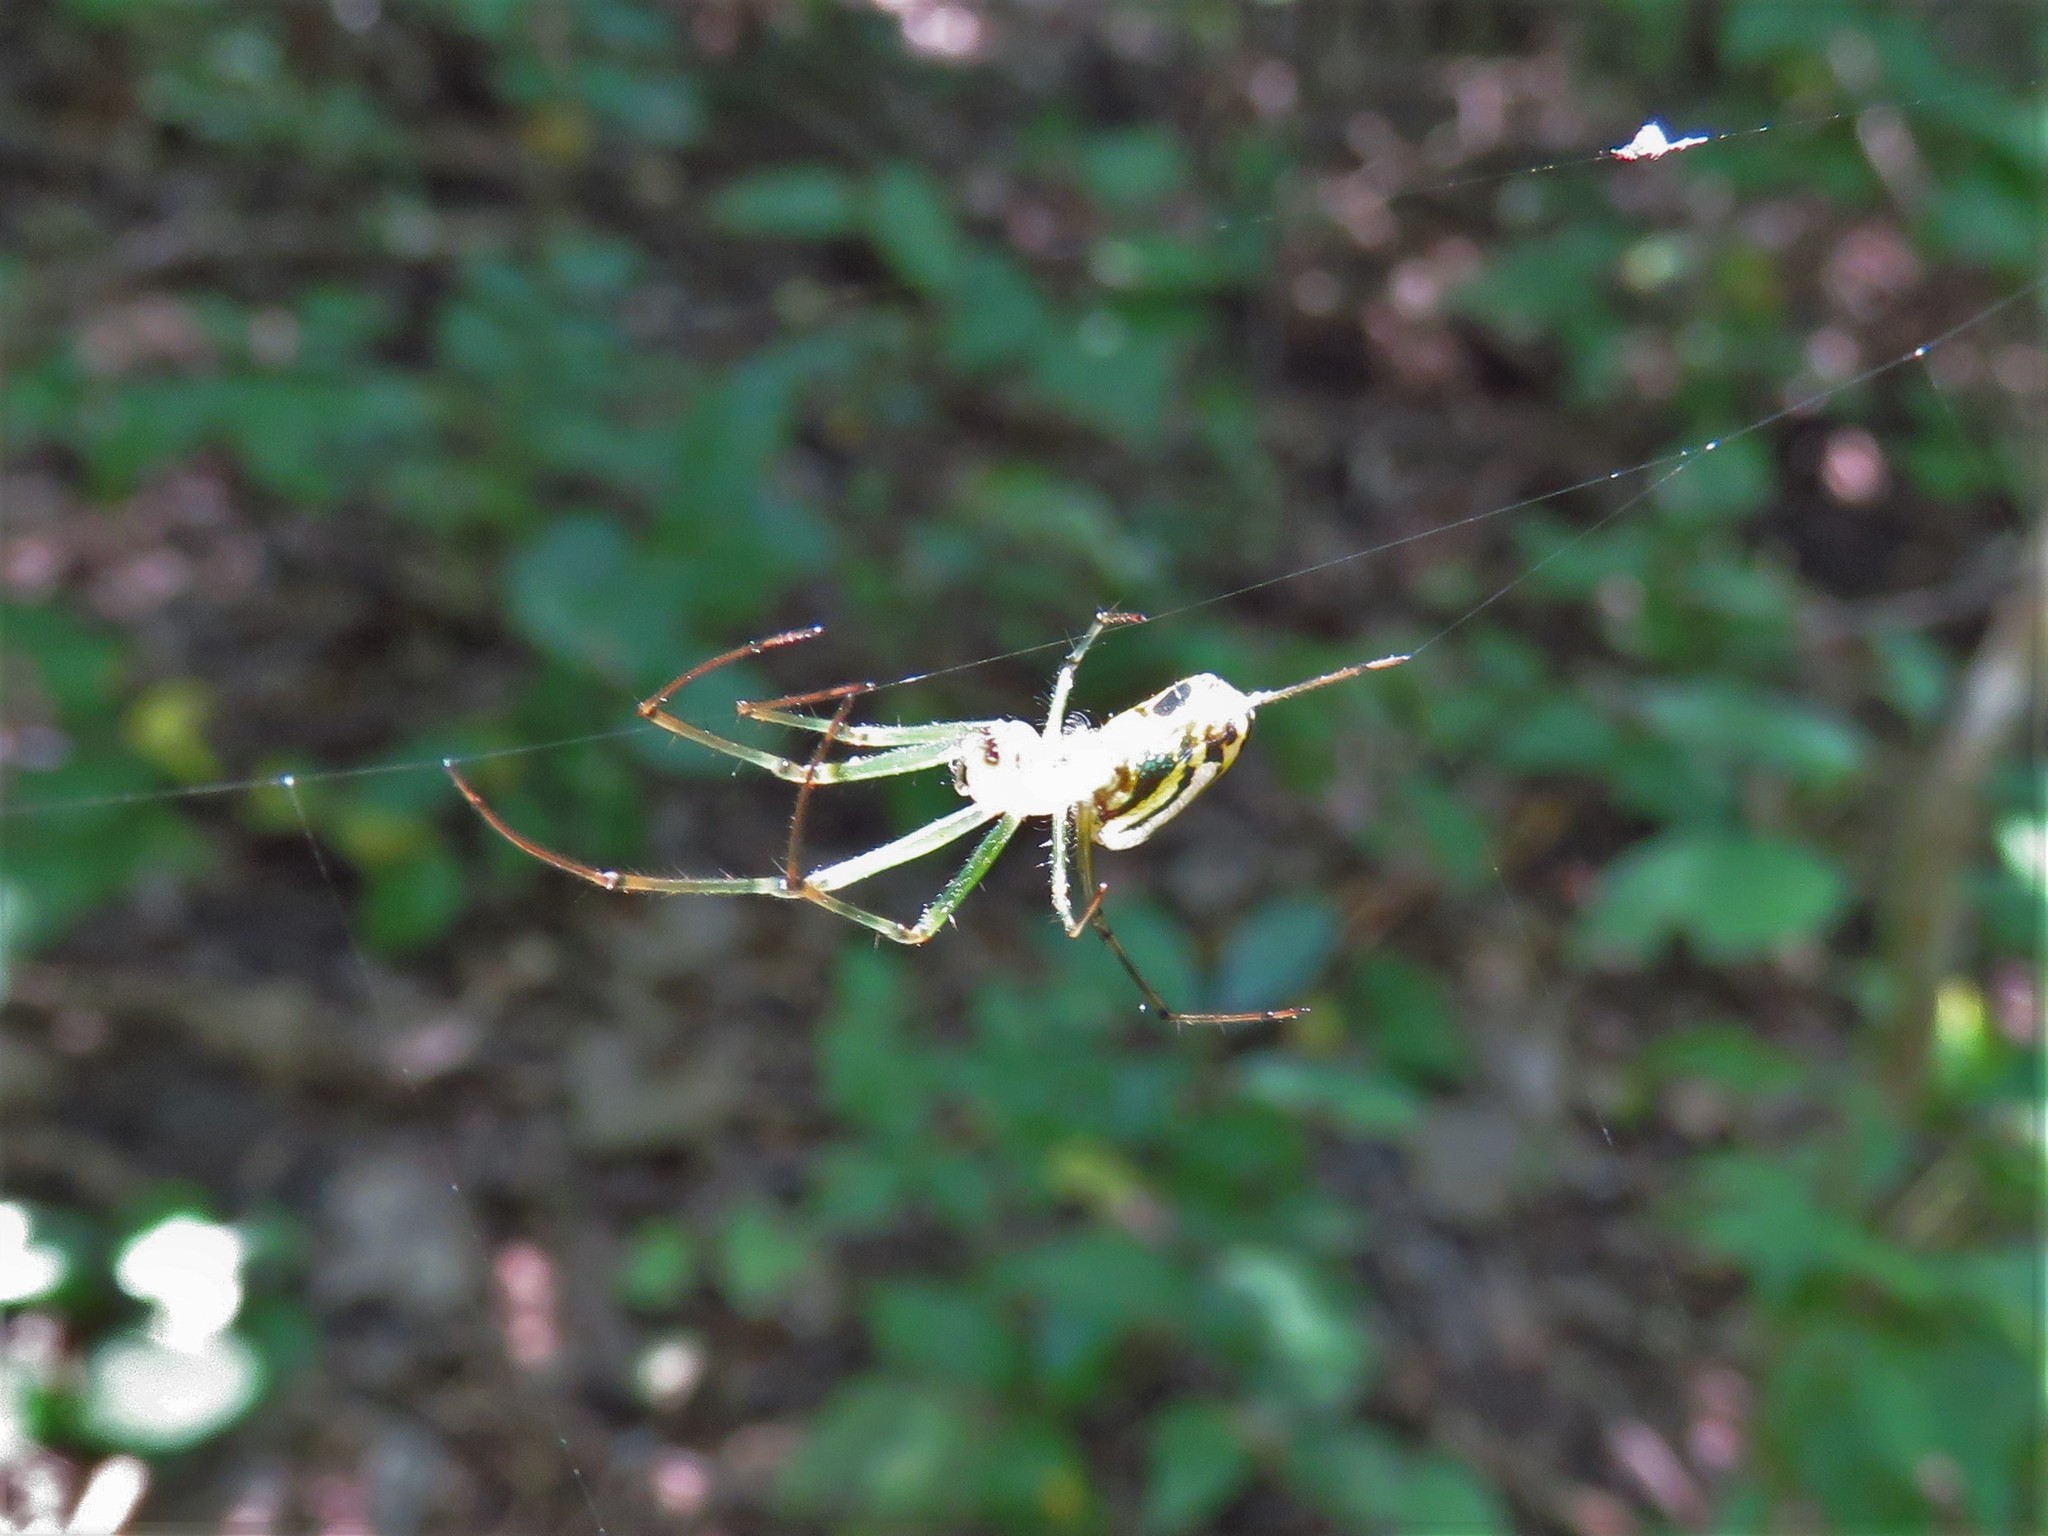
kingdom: Animalia
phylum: Arthropoda
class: Arachnida
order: Araneae
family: Tetragnathidae
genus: Leucauge
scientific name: Leucauge venusta
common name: Longjawed orb weavers
